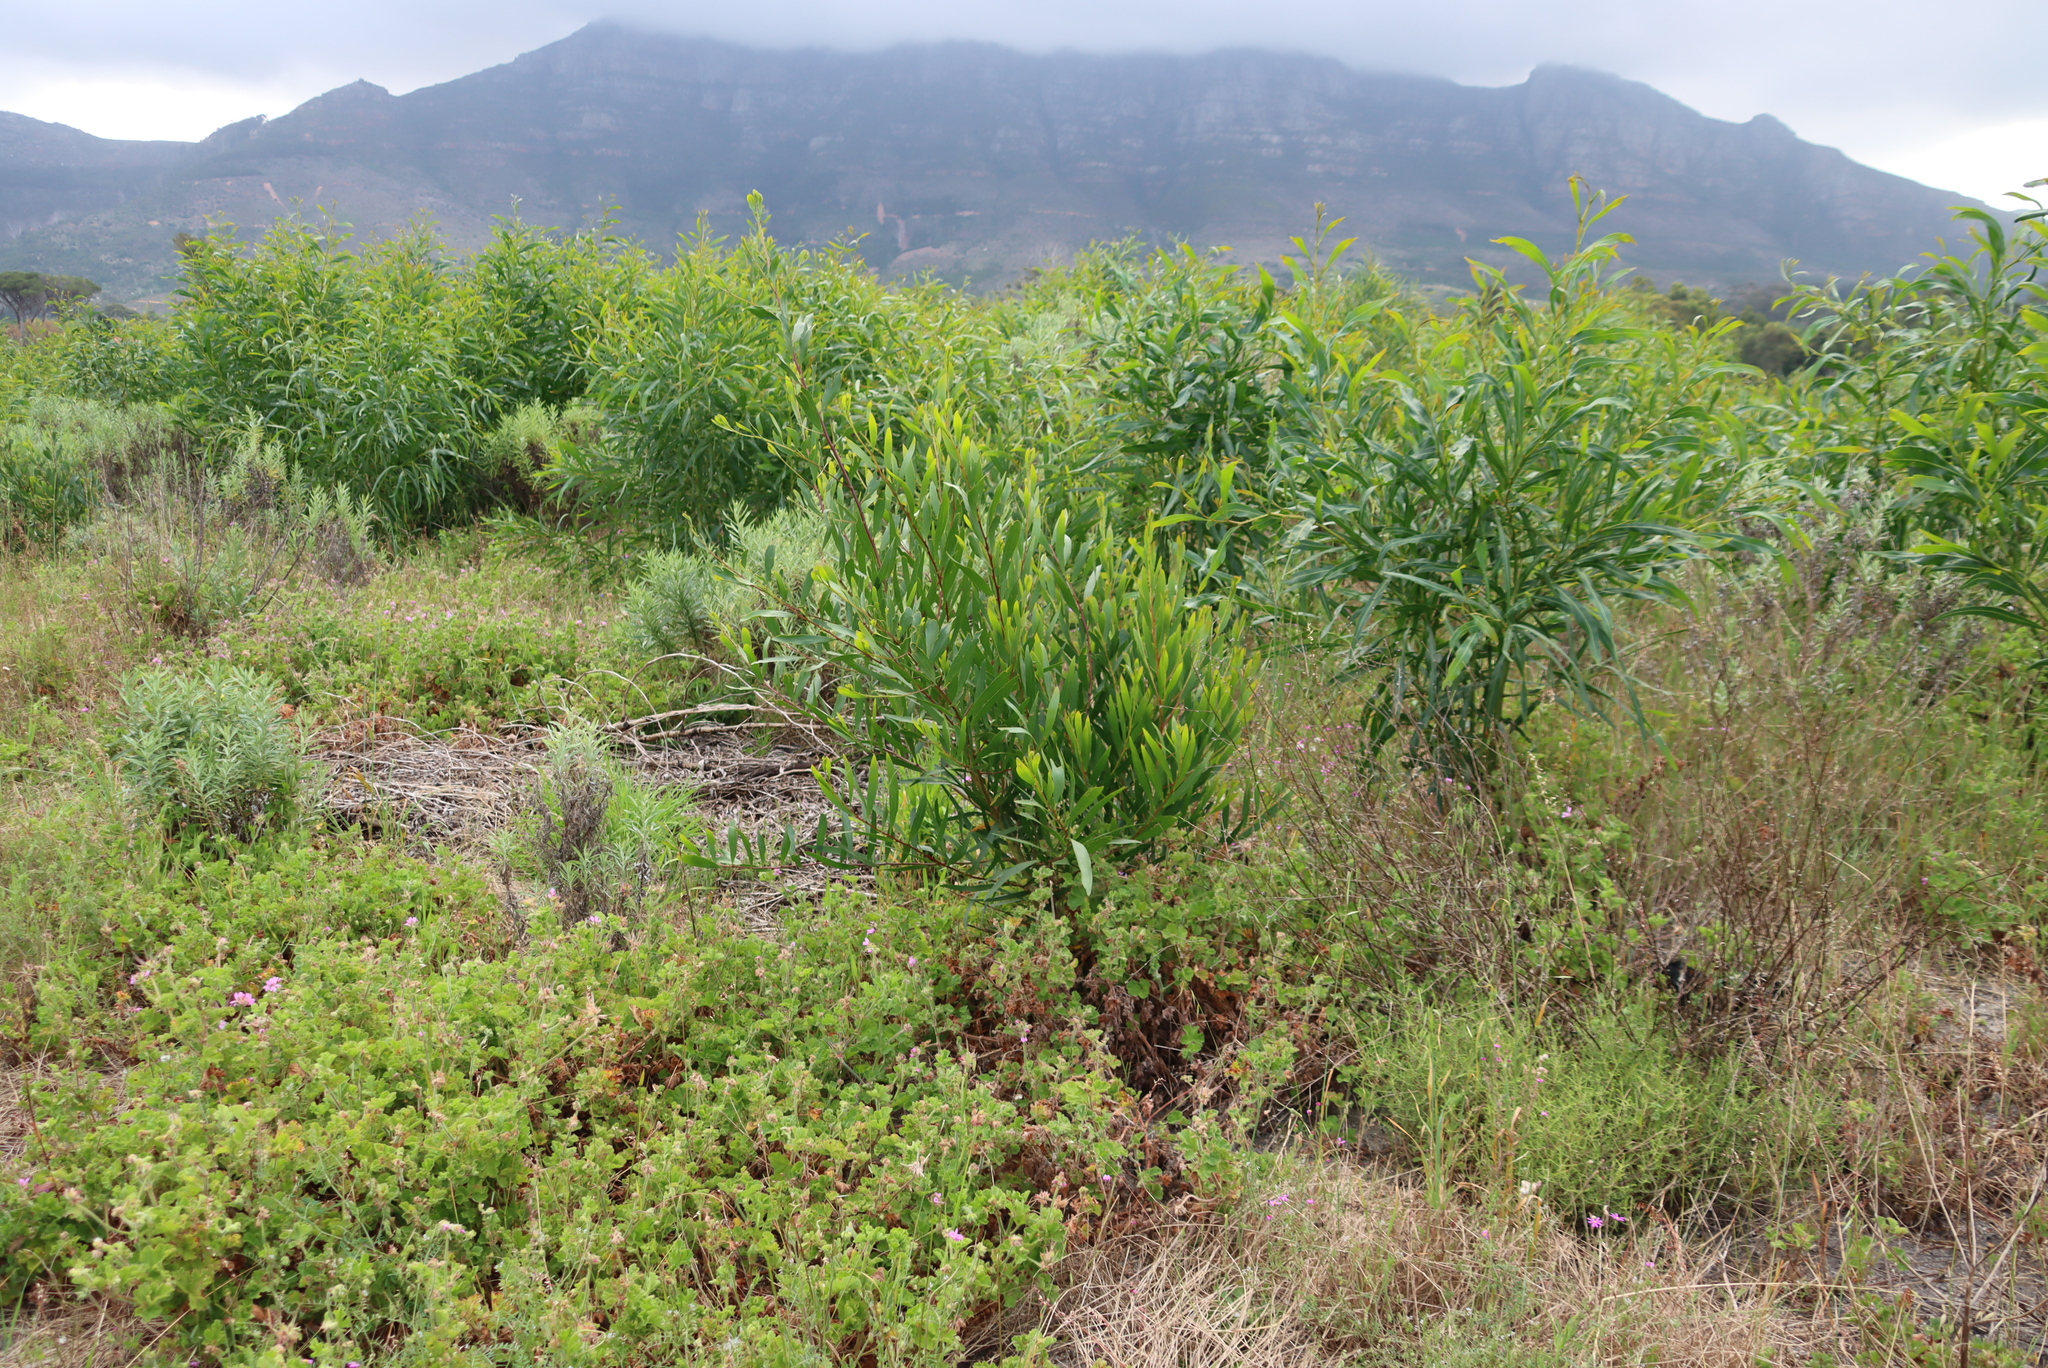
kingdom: Plantae
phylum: Tracheophyta
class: Magnoliopsida
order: Fabales
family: Fabaceae
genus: Acacia
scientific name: Acacia longifolia
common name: Sydney golden wattle
